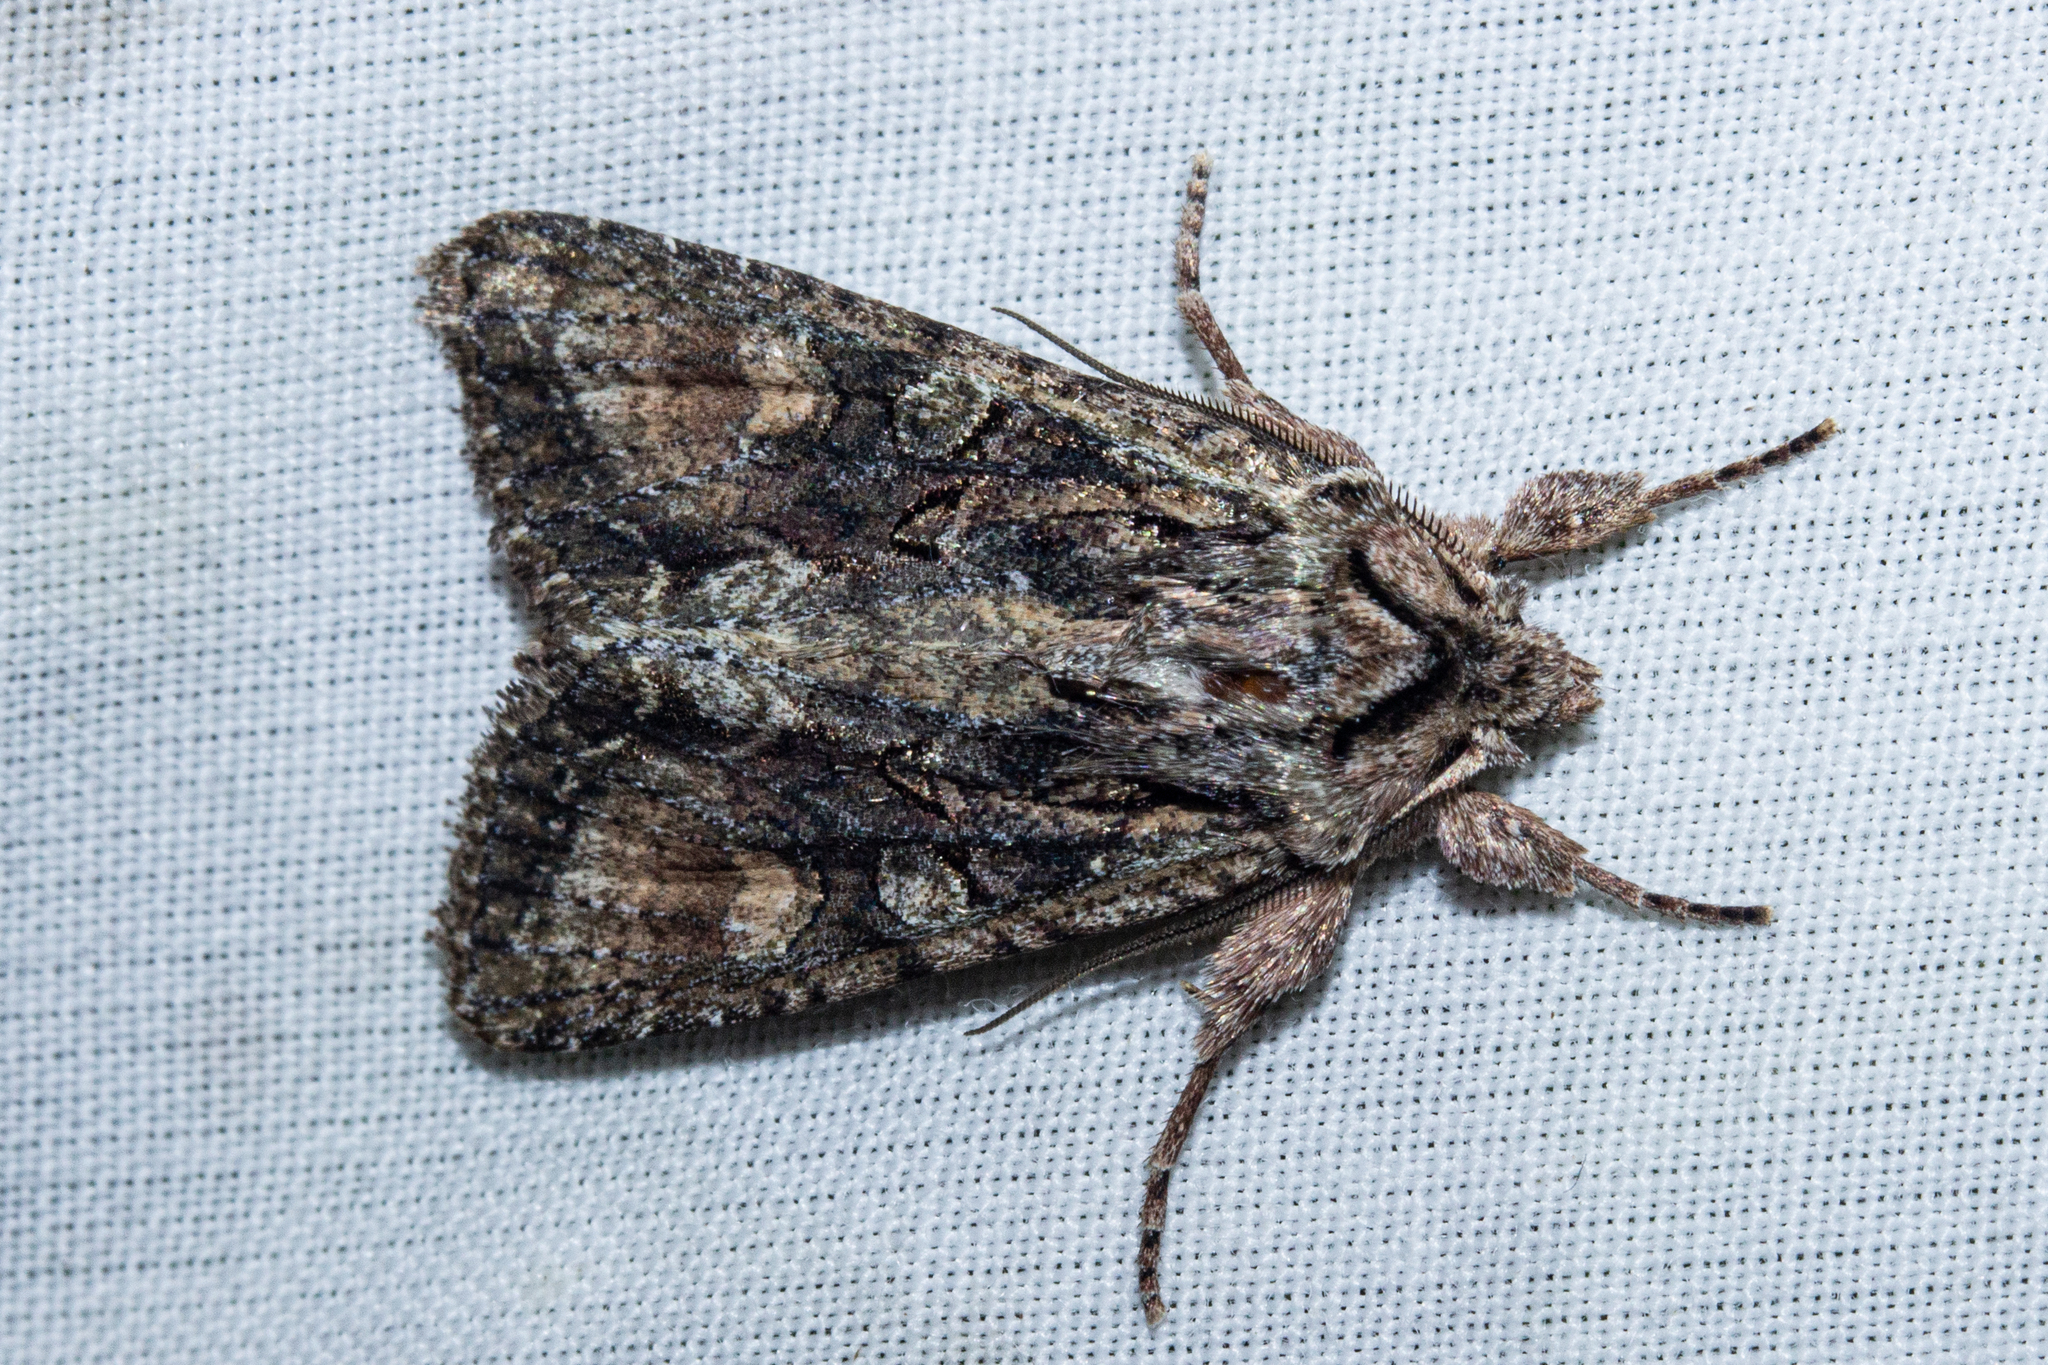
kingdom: Animalia
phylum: Arthropoda
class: Insecta
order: Lepidoptera
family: Noctuidae
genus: Ichneutica
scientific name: Ichneutica mutans
